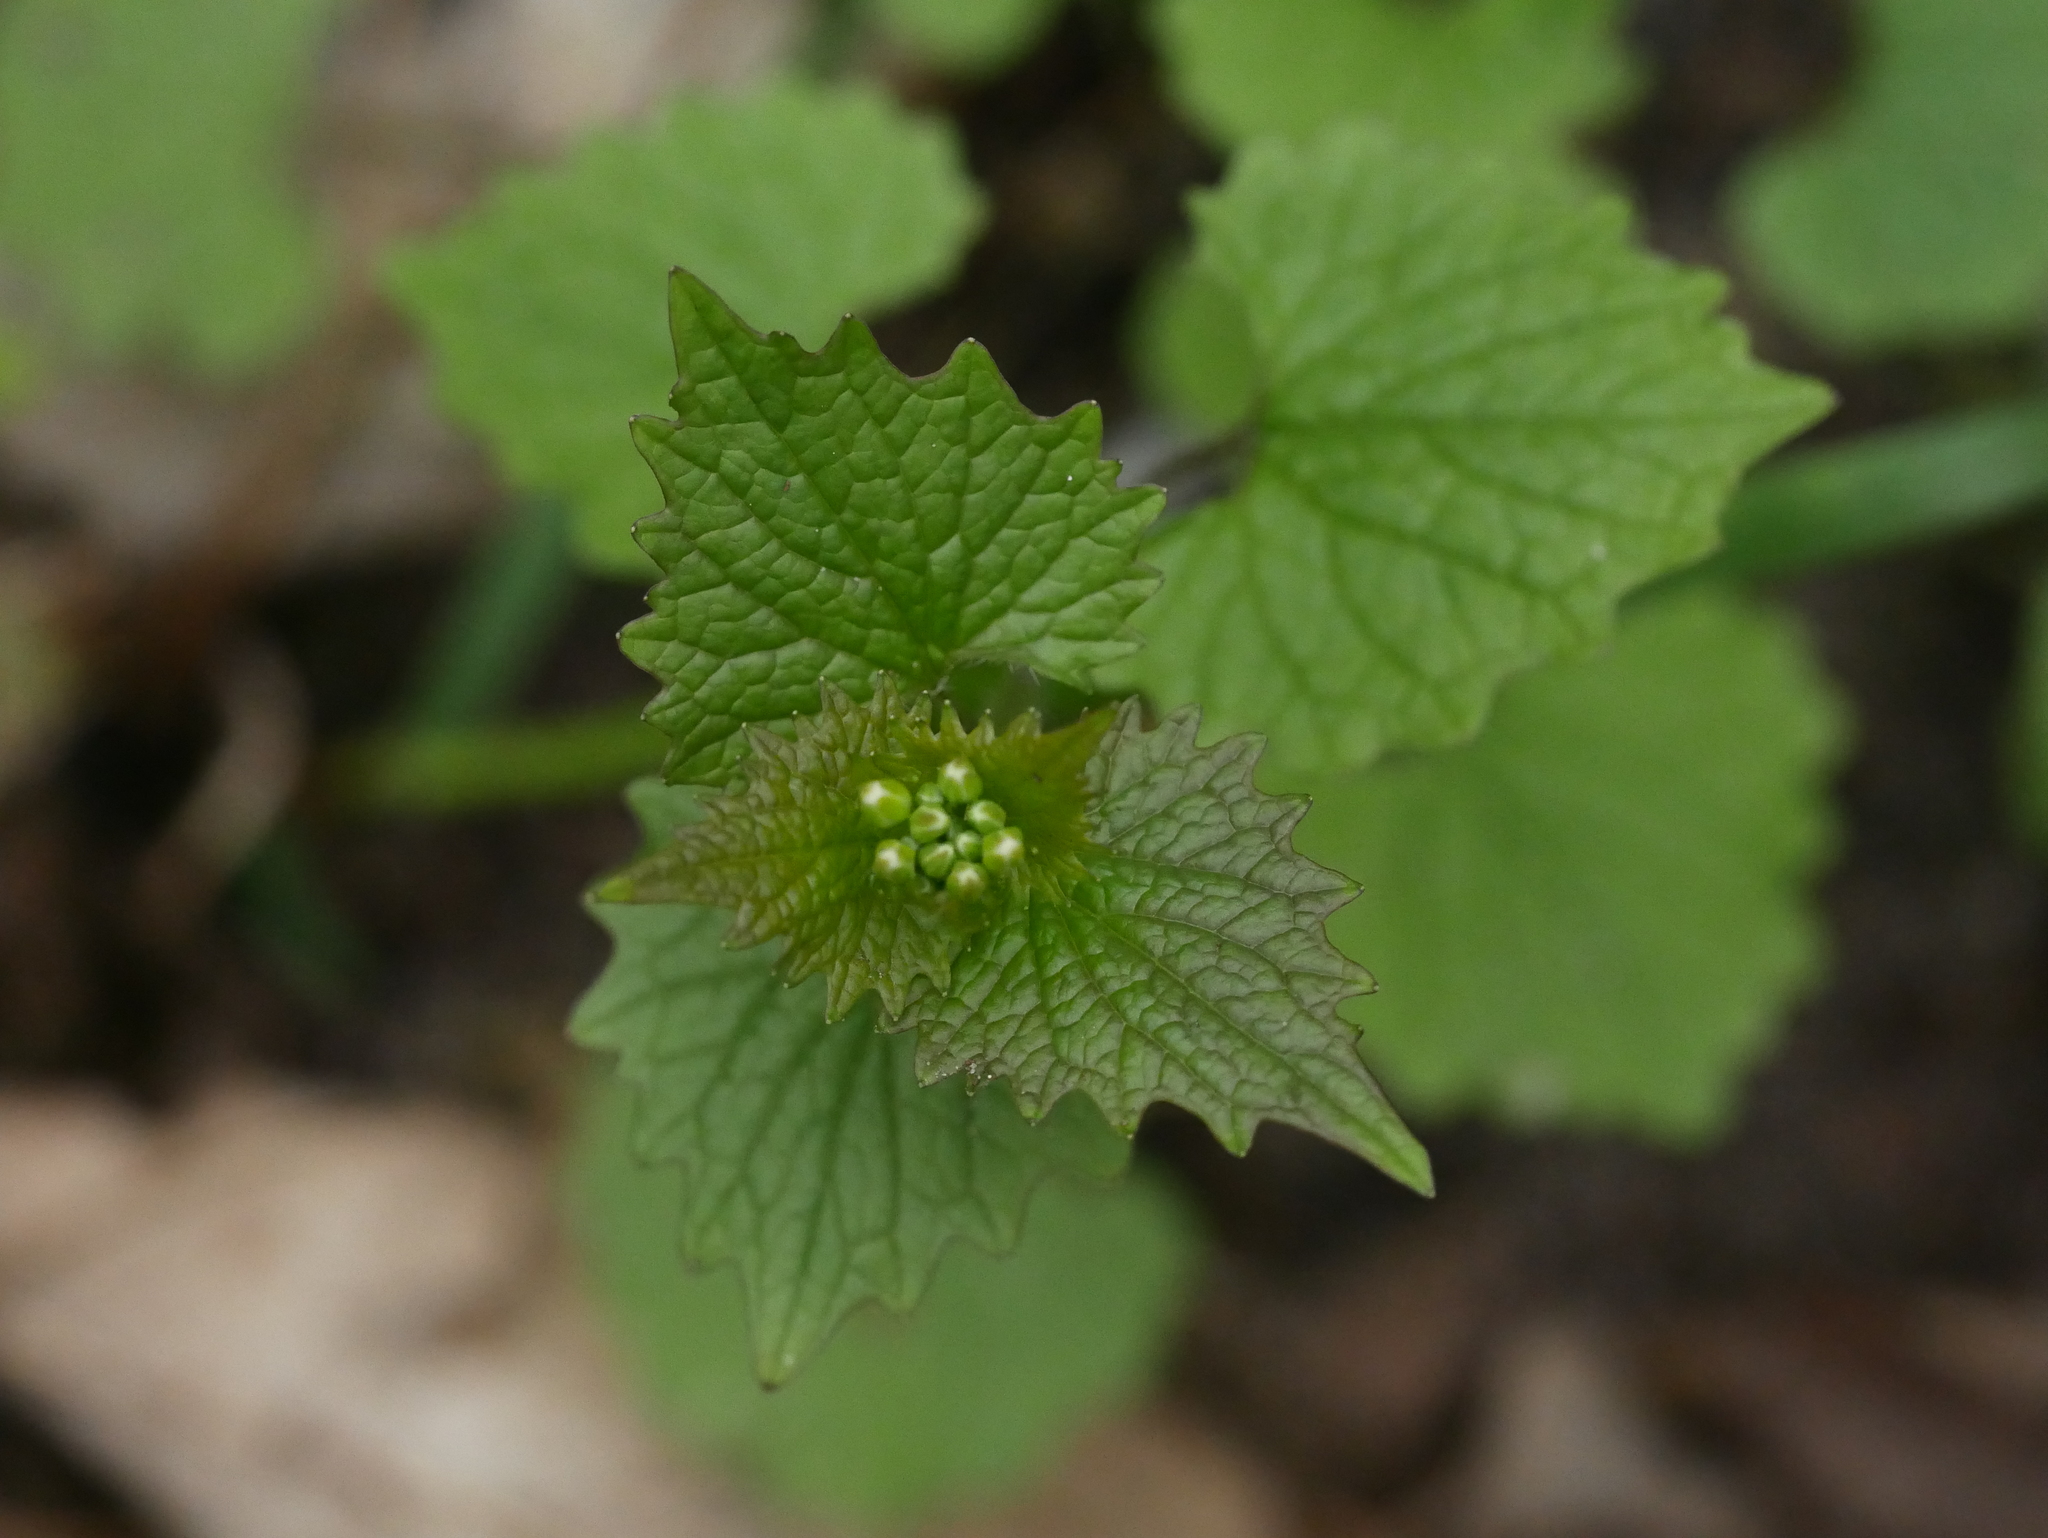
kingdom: Plantae
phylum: Tracheophyta
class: Magnoliopsida
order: Brassicales
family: Brassicaceae
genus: Alliaria
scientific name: Alliaria petiolata
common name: Garlic mustard
